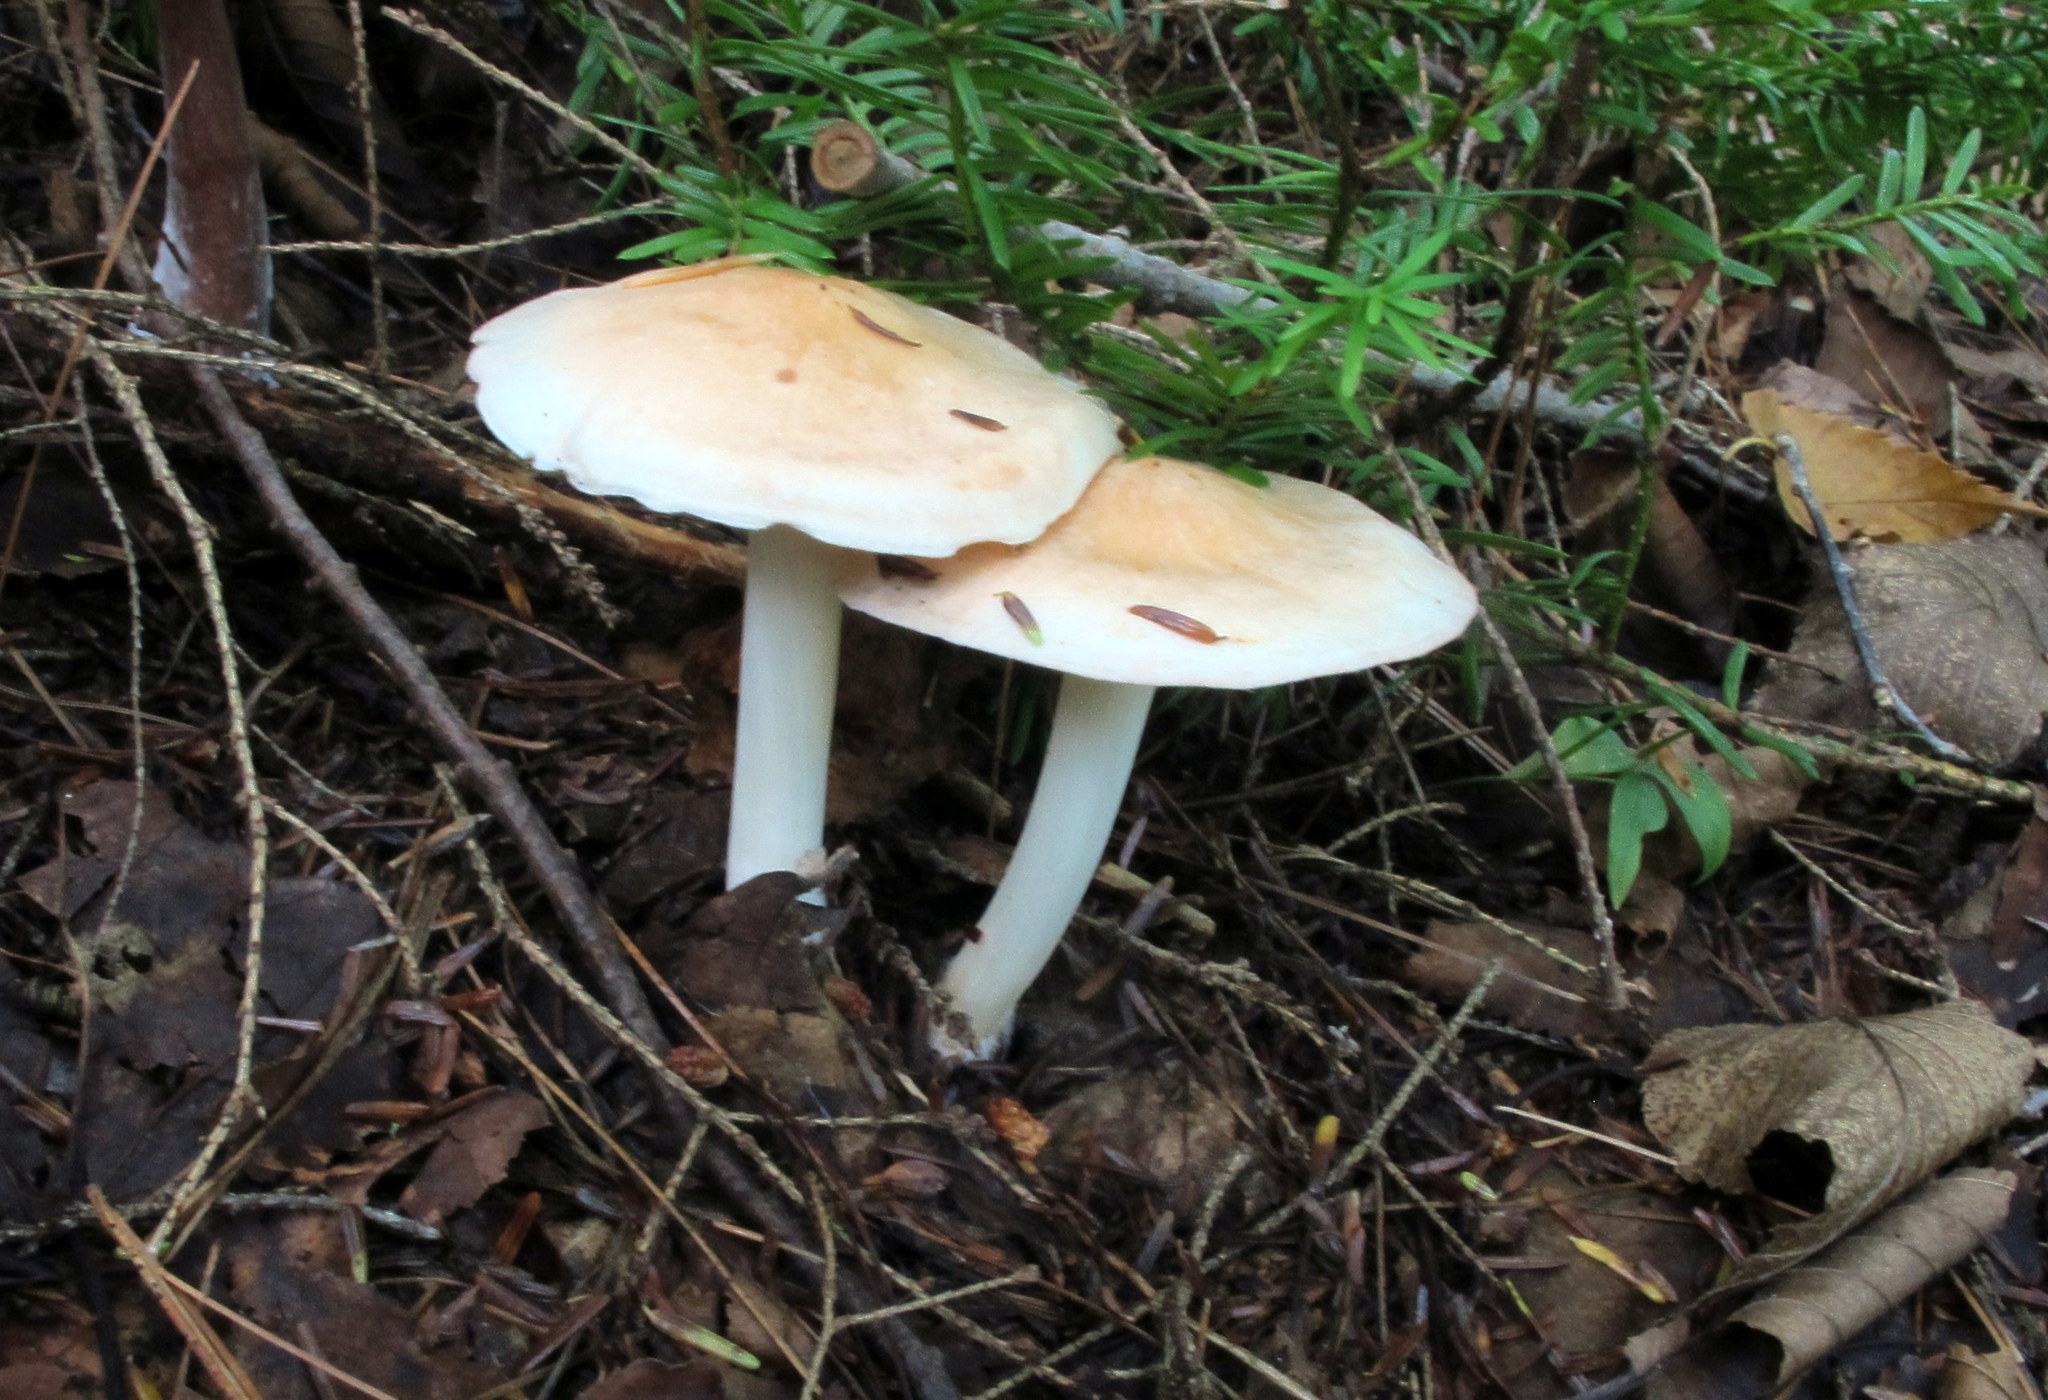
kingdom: Fungi
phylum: Basidiomycota
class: Agaricomycetes
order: Agaricales
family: Omphalotaceae
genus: Rhodocollybia
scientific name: Rhodocollybia maculata
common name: Spotted tough-shank
